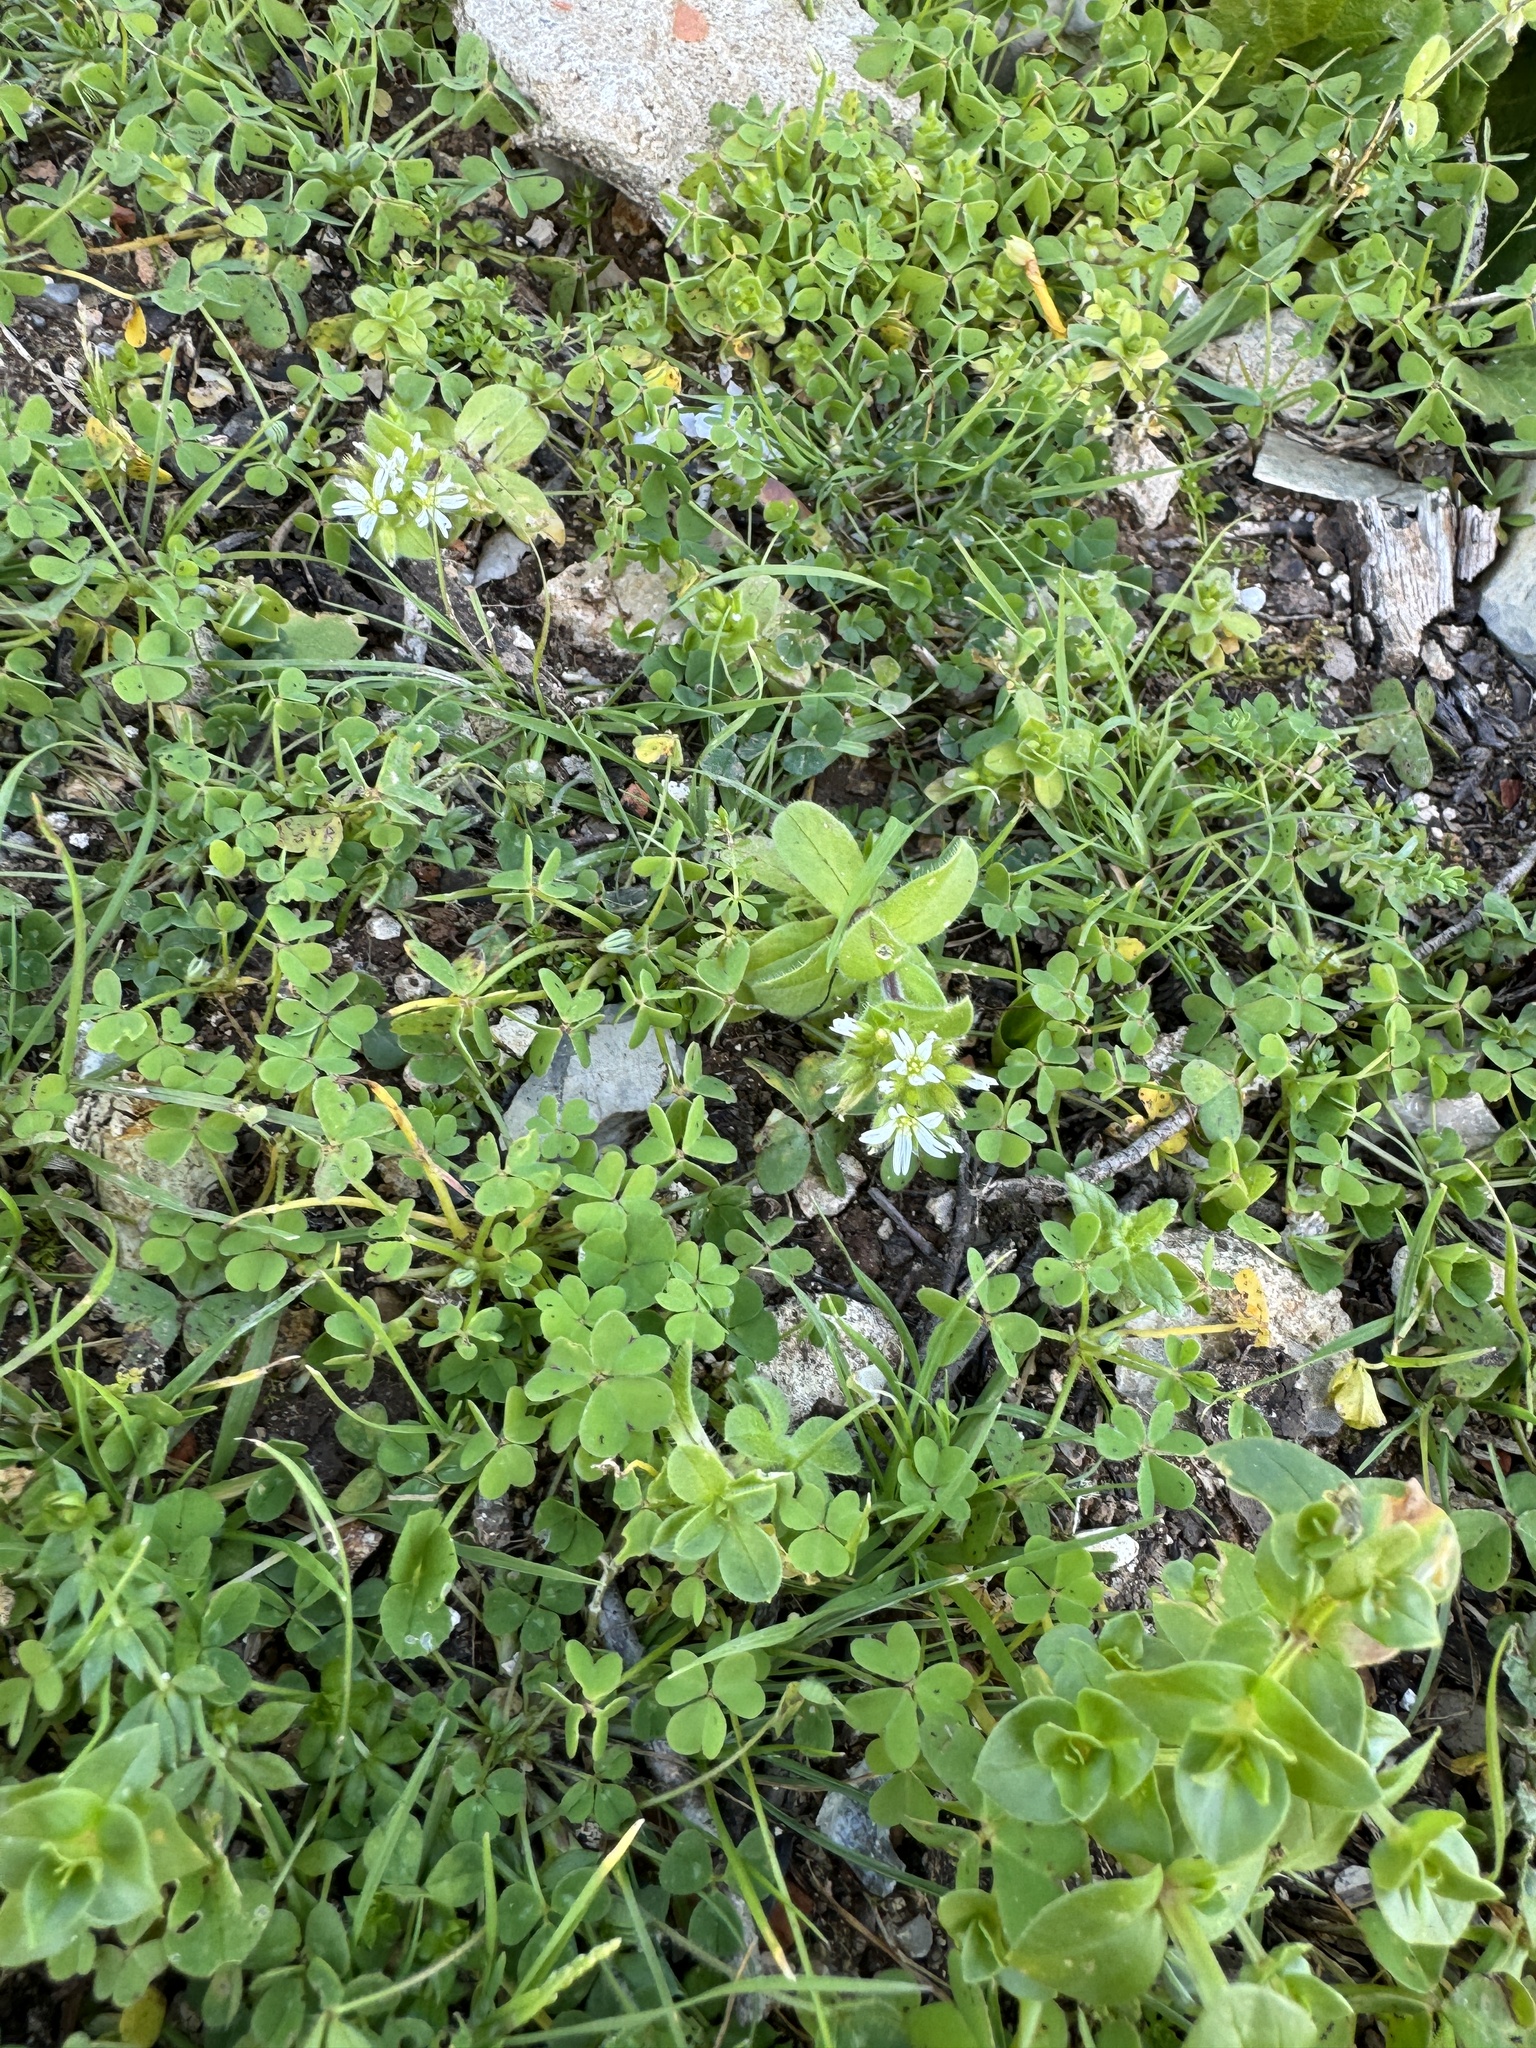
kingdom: Plantae
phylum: Tracheophyta
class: Magnoliopsida
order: Caryophyllales
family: Caryophyllaceae
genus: Cerastium
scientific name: Cerastium glomeratum
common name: Sticky chickweed
